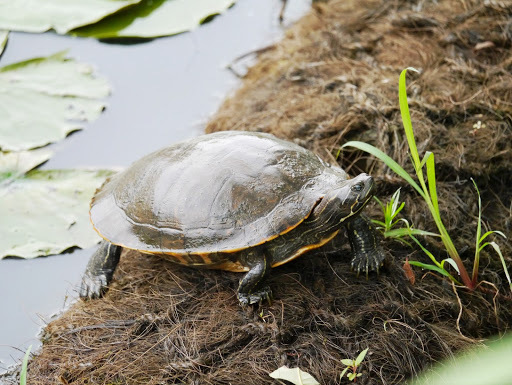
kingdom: Animalia
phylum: Chordata
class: Testudines
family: Emydidae
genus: Pseudemys
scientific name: Pseudemys rubriventris
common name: American red-bellied turtle
